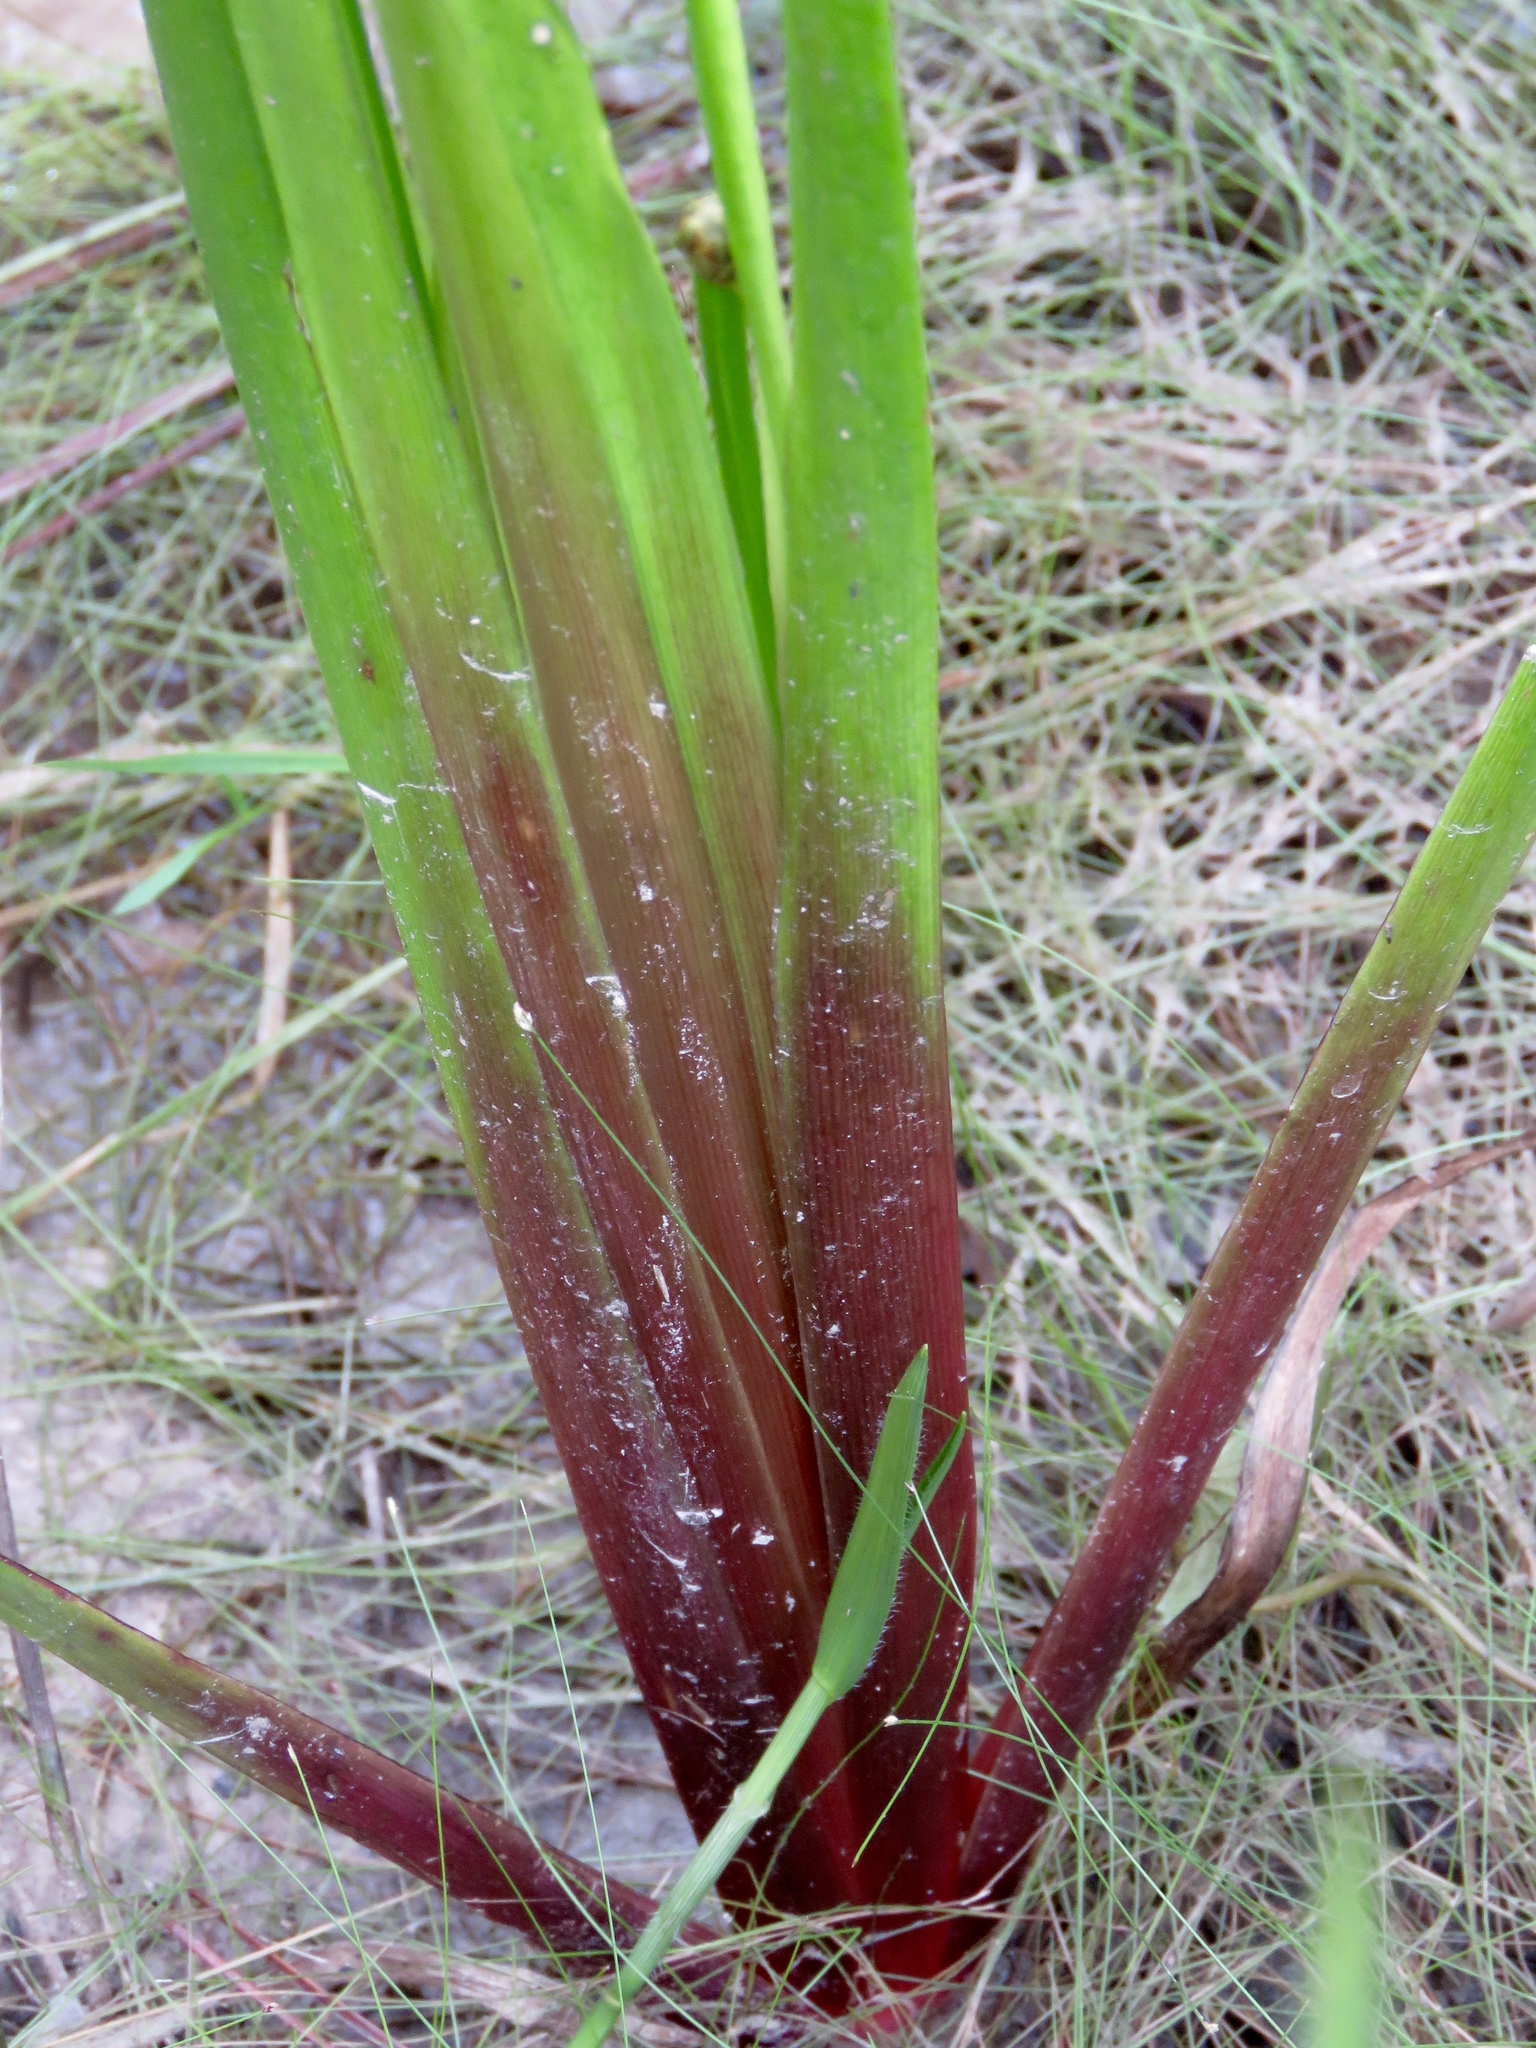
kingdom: Plantae
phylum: Tracheophyta
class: Liliopsida
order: Poales
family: Xyridaceae
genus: Xyris
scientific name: Xyris laxifolia
